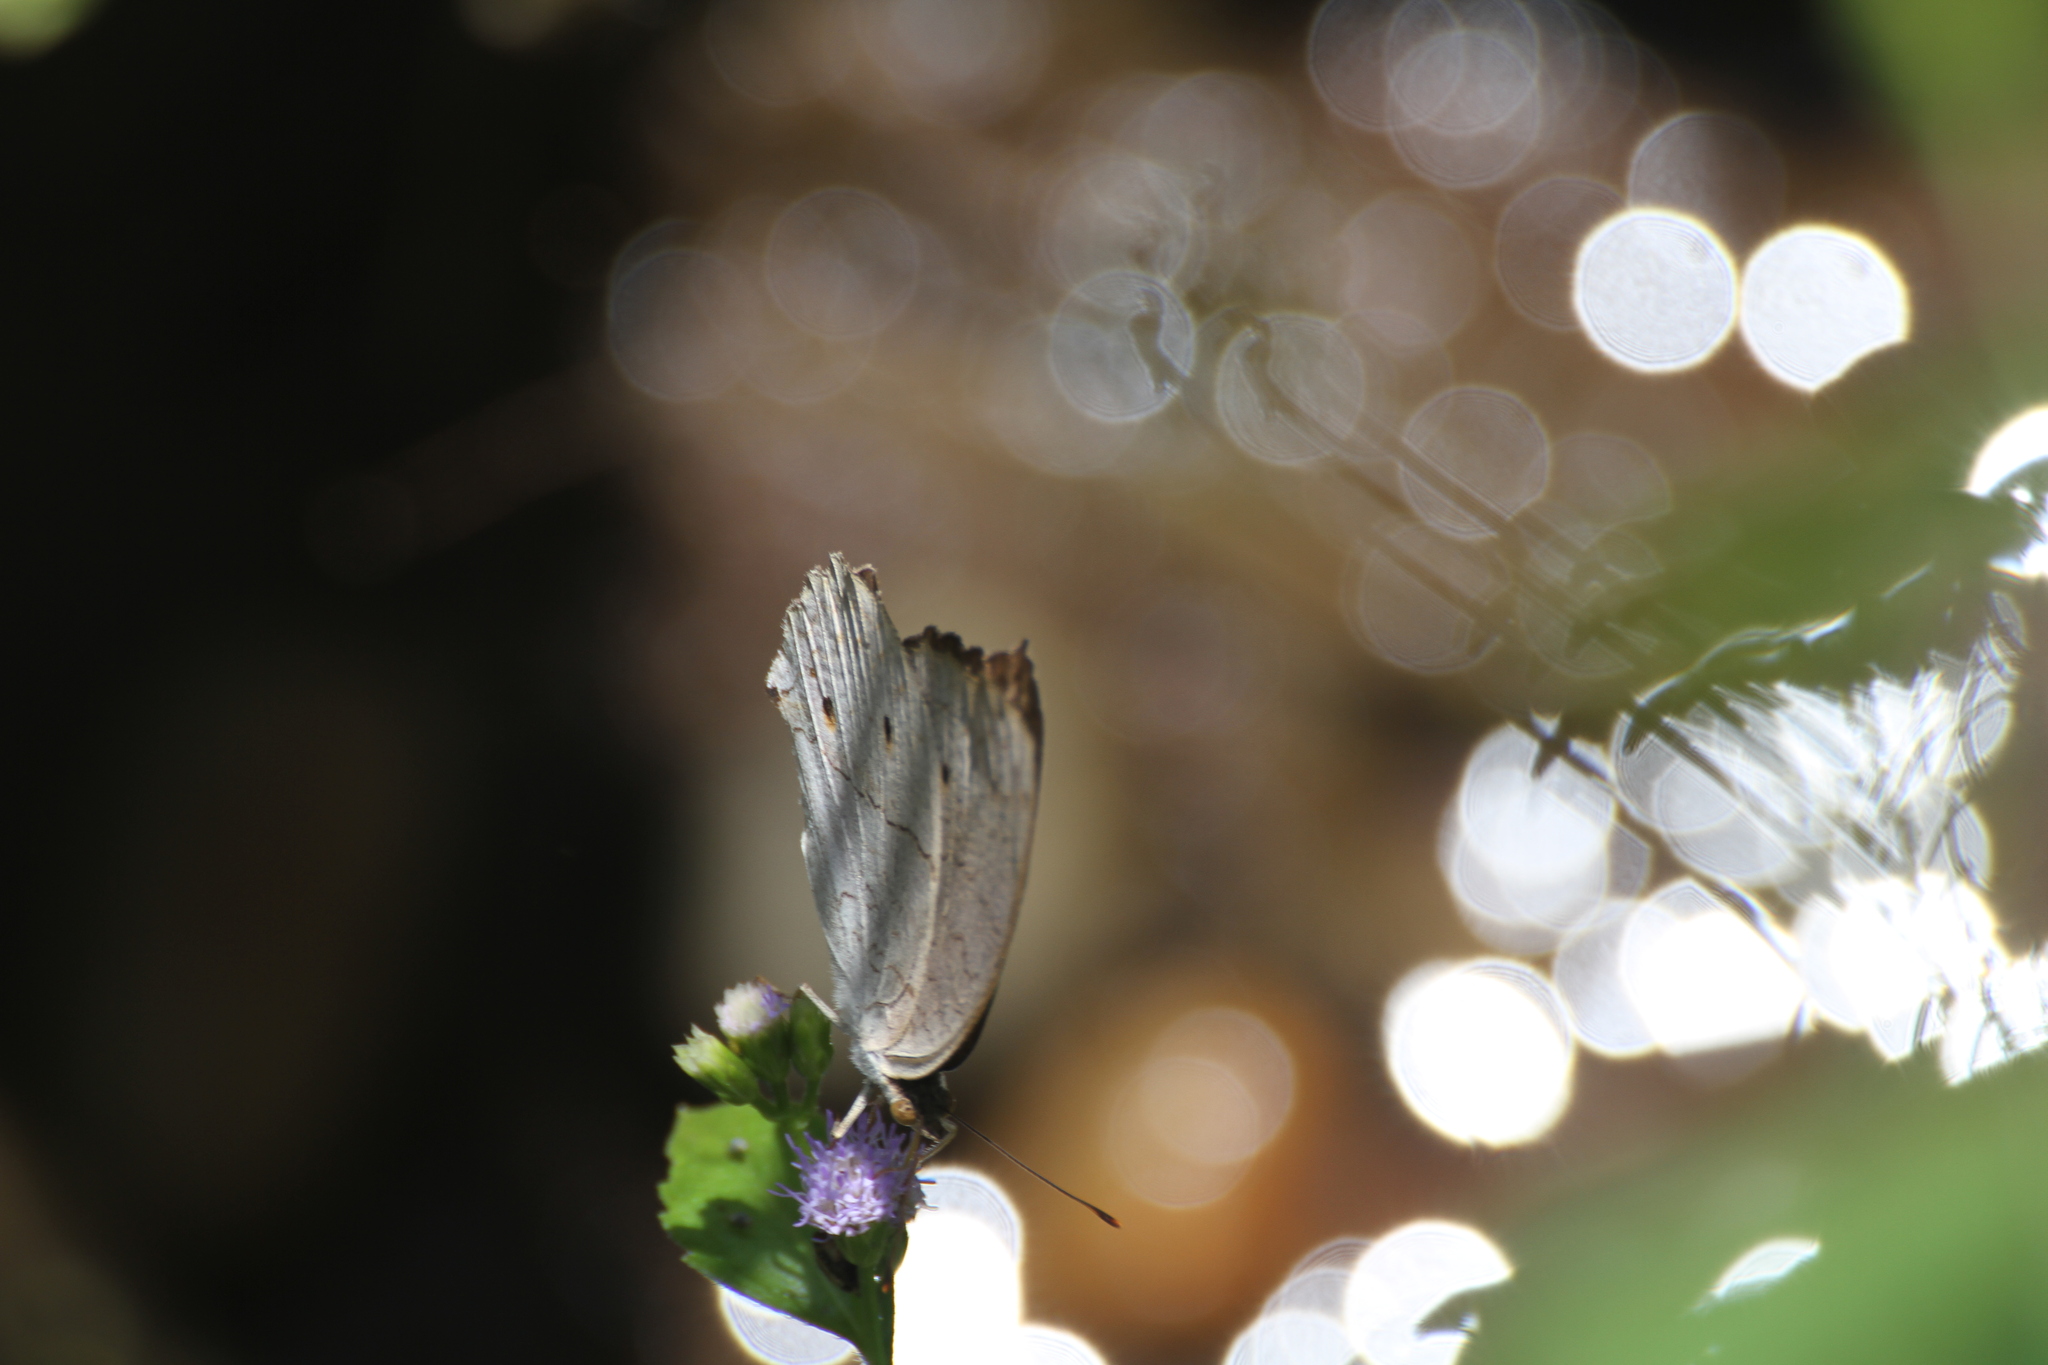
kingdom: Animalia
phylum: Arthropoda
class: Insecta
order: Lepidoptera
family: Nymphalidae
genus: Junonia
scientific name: Junonia atlites
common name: Grey pansy
